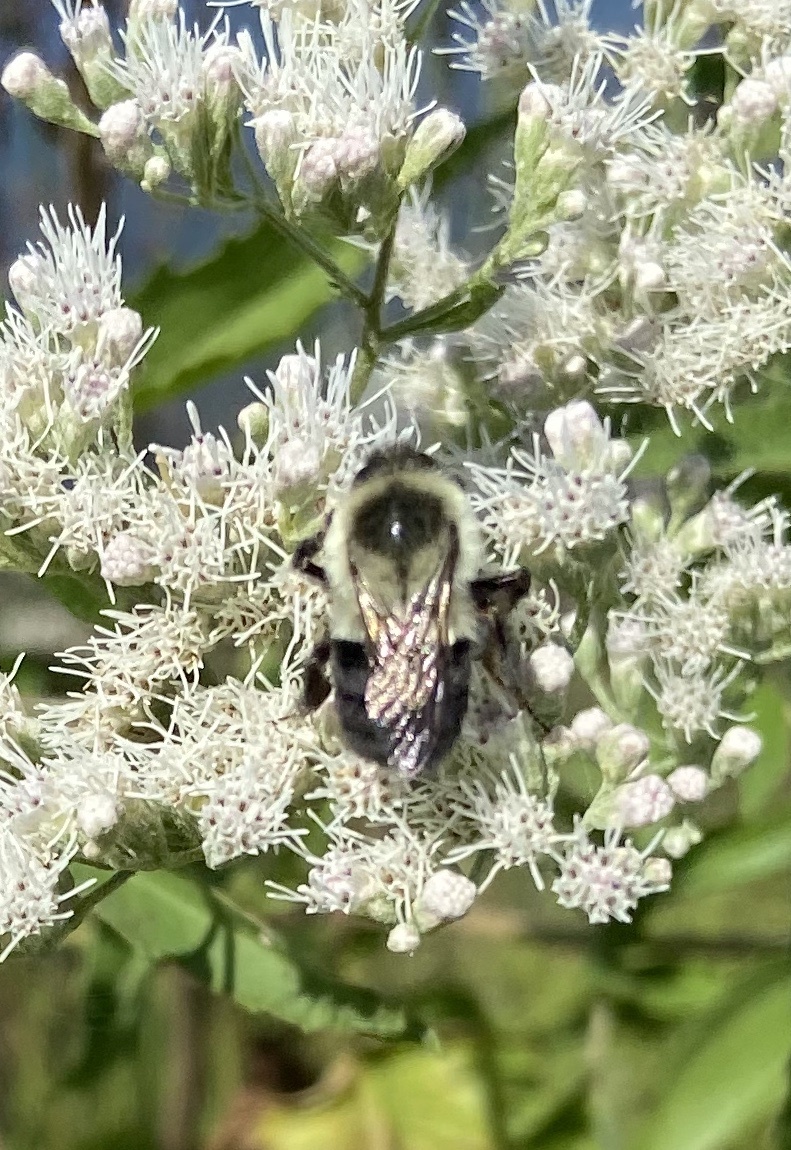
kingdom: Animalia
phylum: Arthropoda
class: Insecta
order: Hymenoptera
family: Apidae
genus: Bombus
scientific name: Bombus impatiens
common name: Common eastern bumble bee
